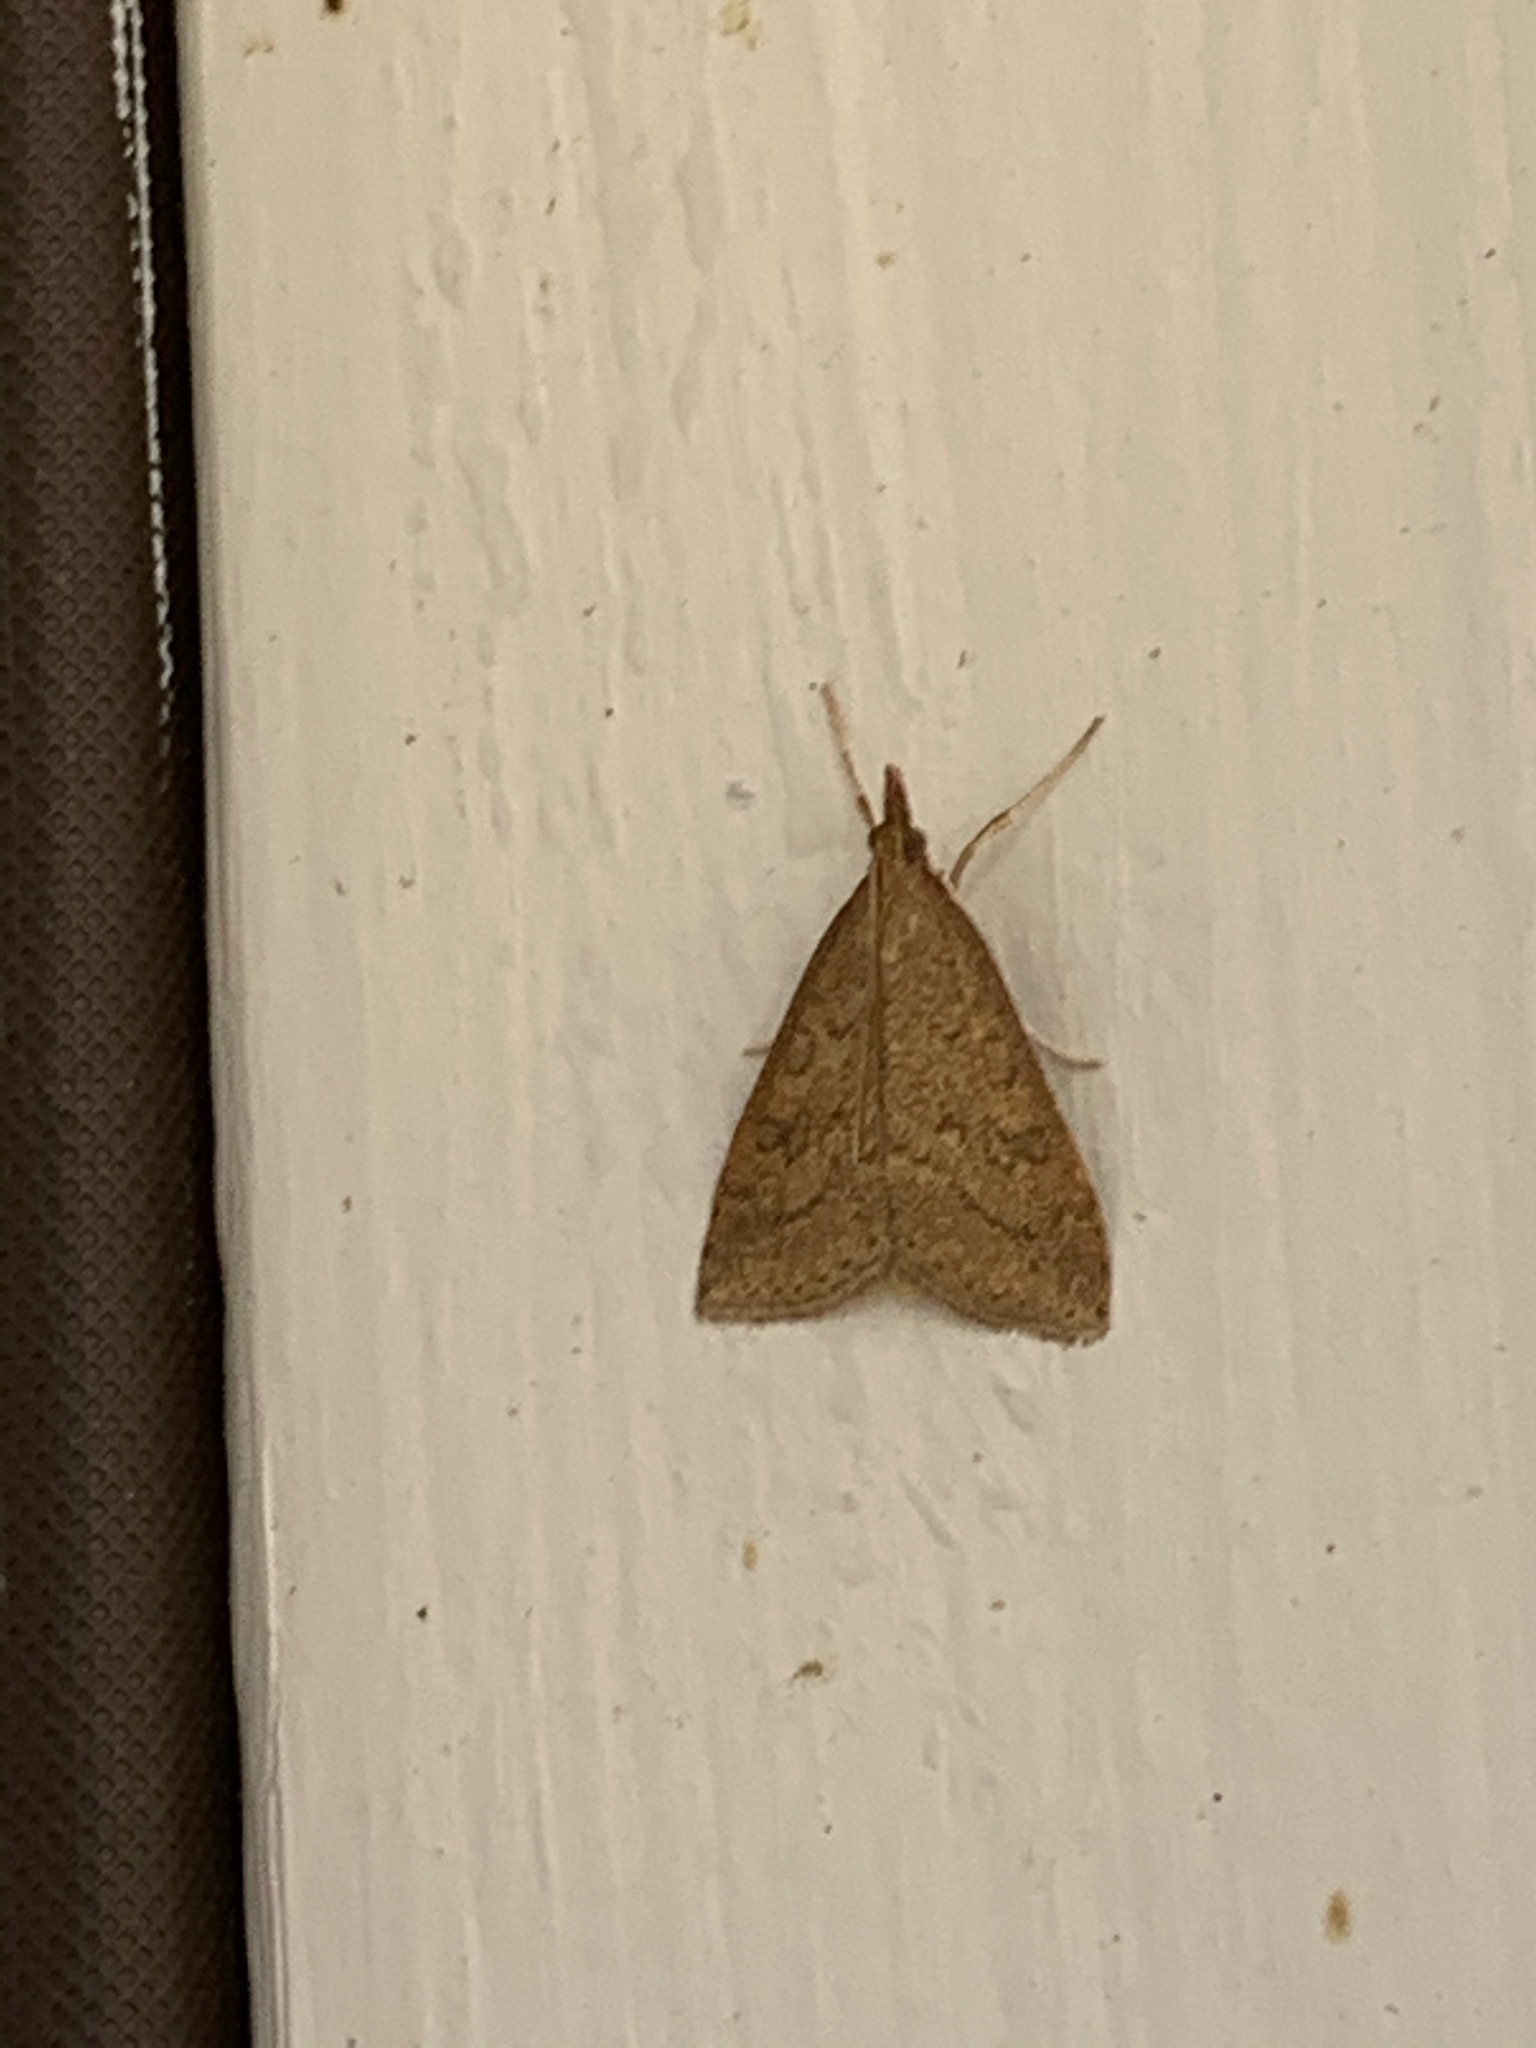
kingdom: Animalia
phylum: Arthropoda
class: Insecta
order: Lepidoptera
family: Crambidae
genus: Udea
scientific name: Udea rubigalis
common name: Celery leaftier moth
